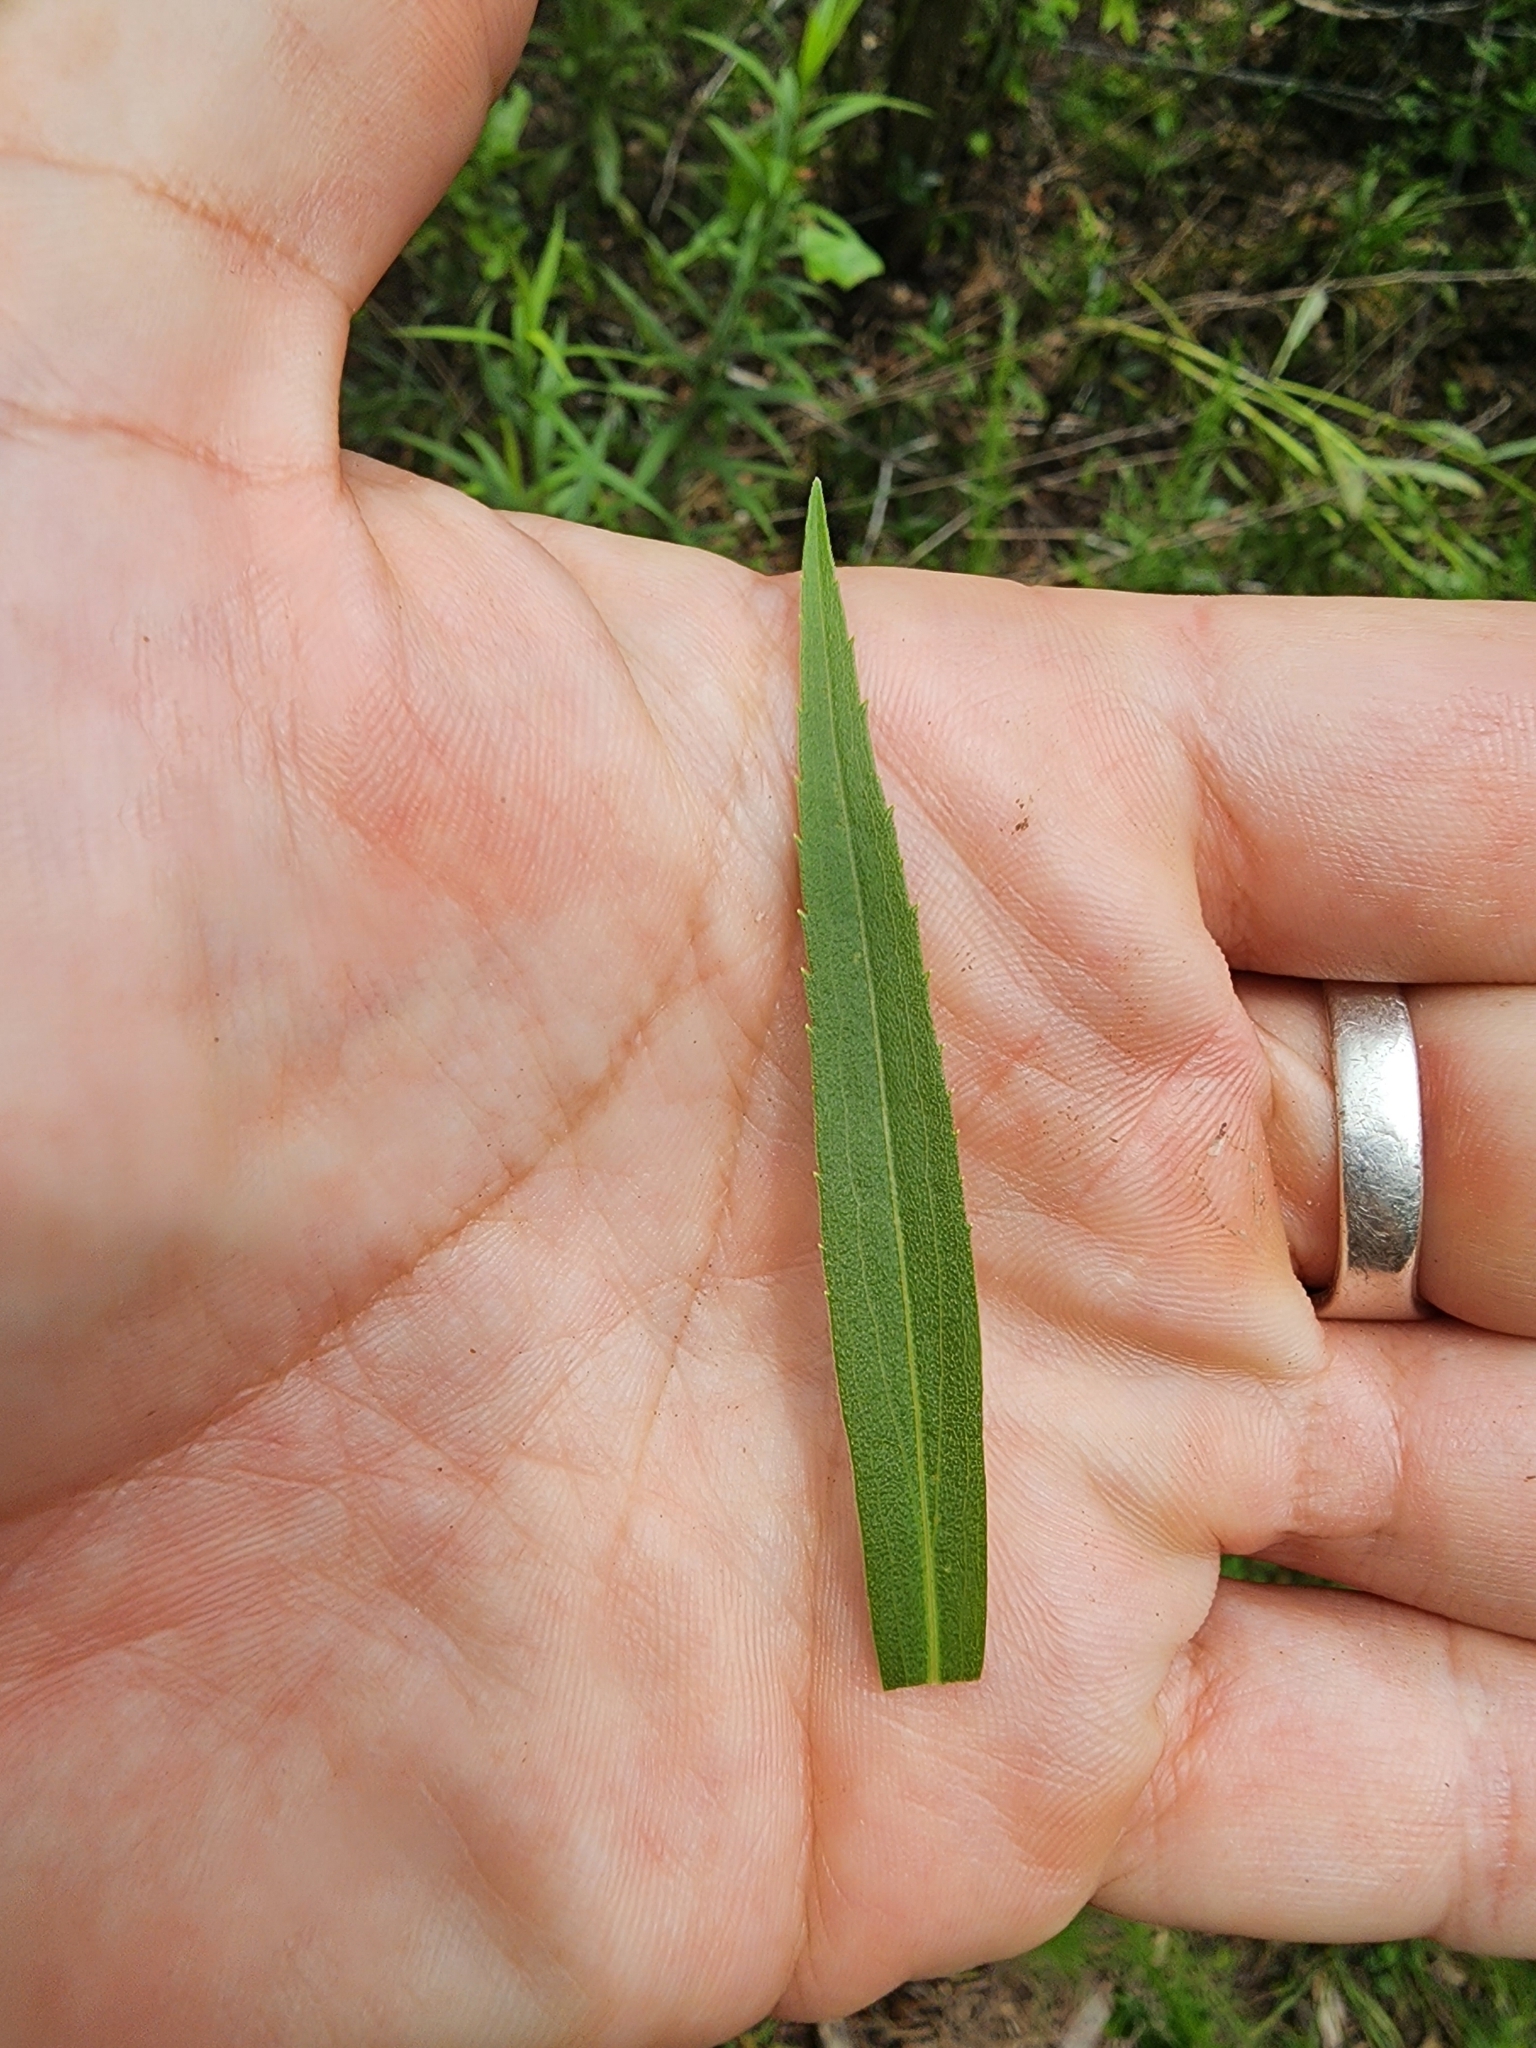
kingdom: Plantae
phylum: Tracheophyta
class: Magnoliopsida
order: Asterales
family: Asteraceae
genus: Solidago
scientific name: Solidago leavenworthii
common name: Leavenworth's goldenrod
